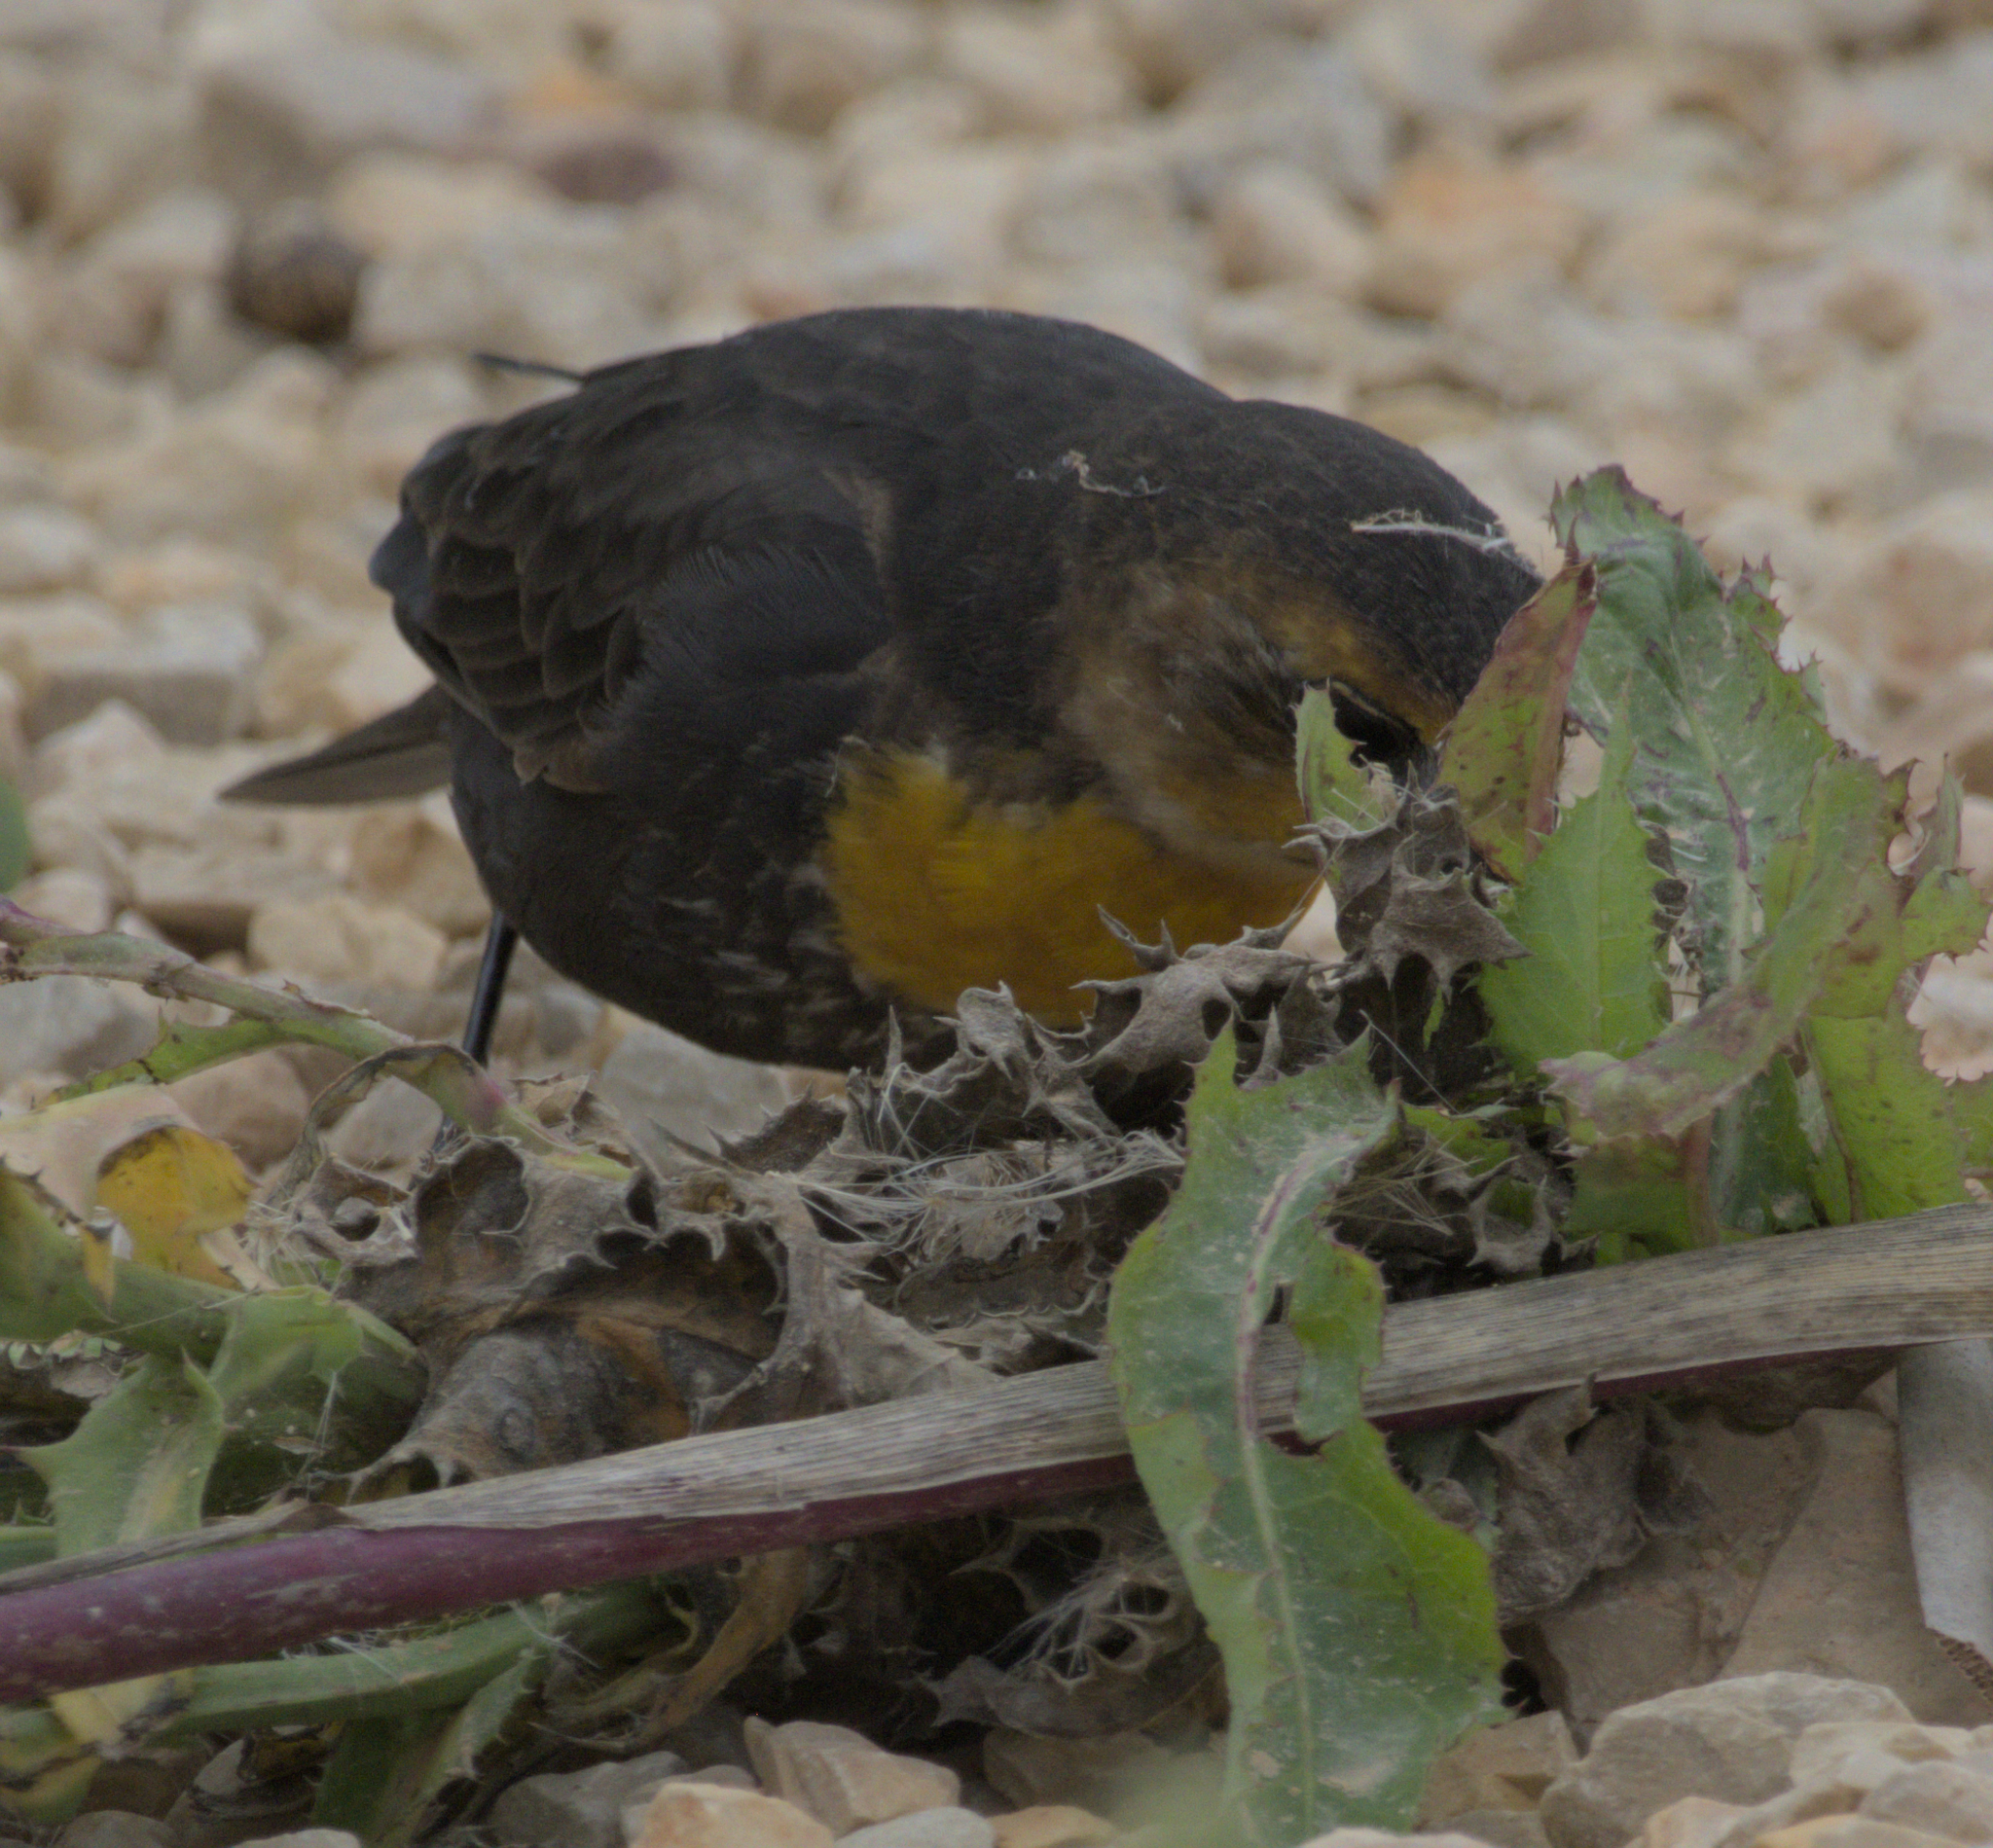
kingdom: Animalia
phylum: Chordata
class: Aves
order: Passeriformes
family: Icteridae
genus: Xanthocephalus
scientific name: Xanthocephalus xanthocephalus
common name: Yellow-headed blackbird
